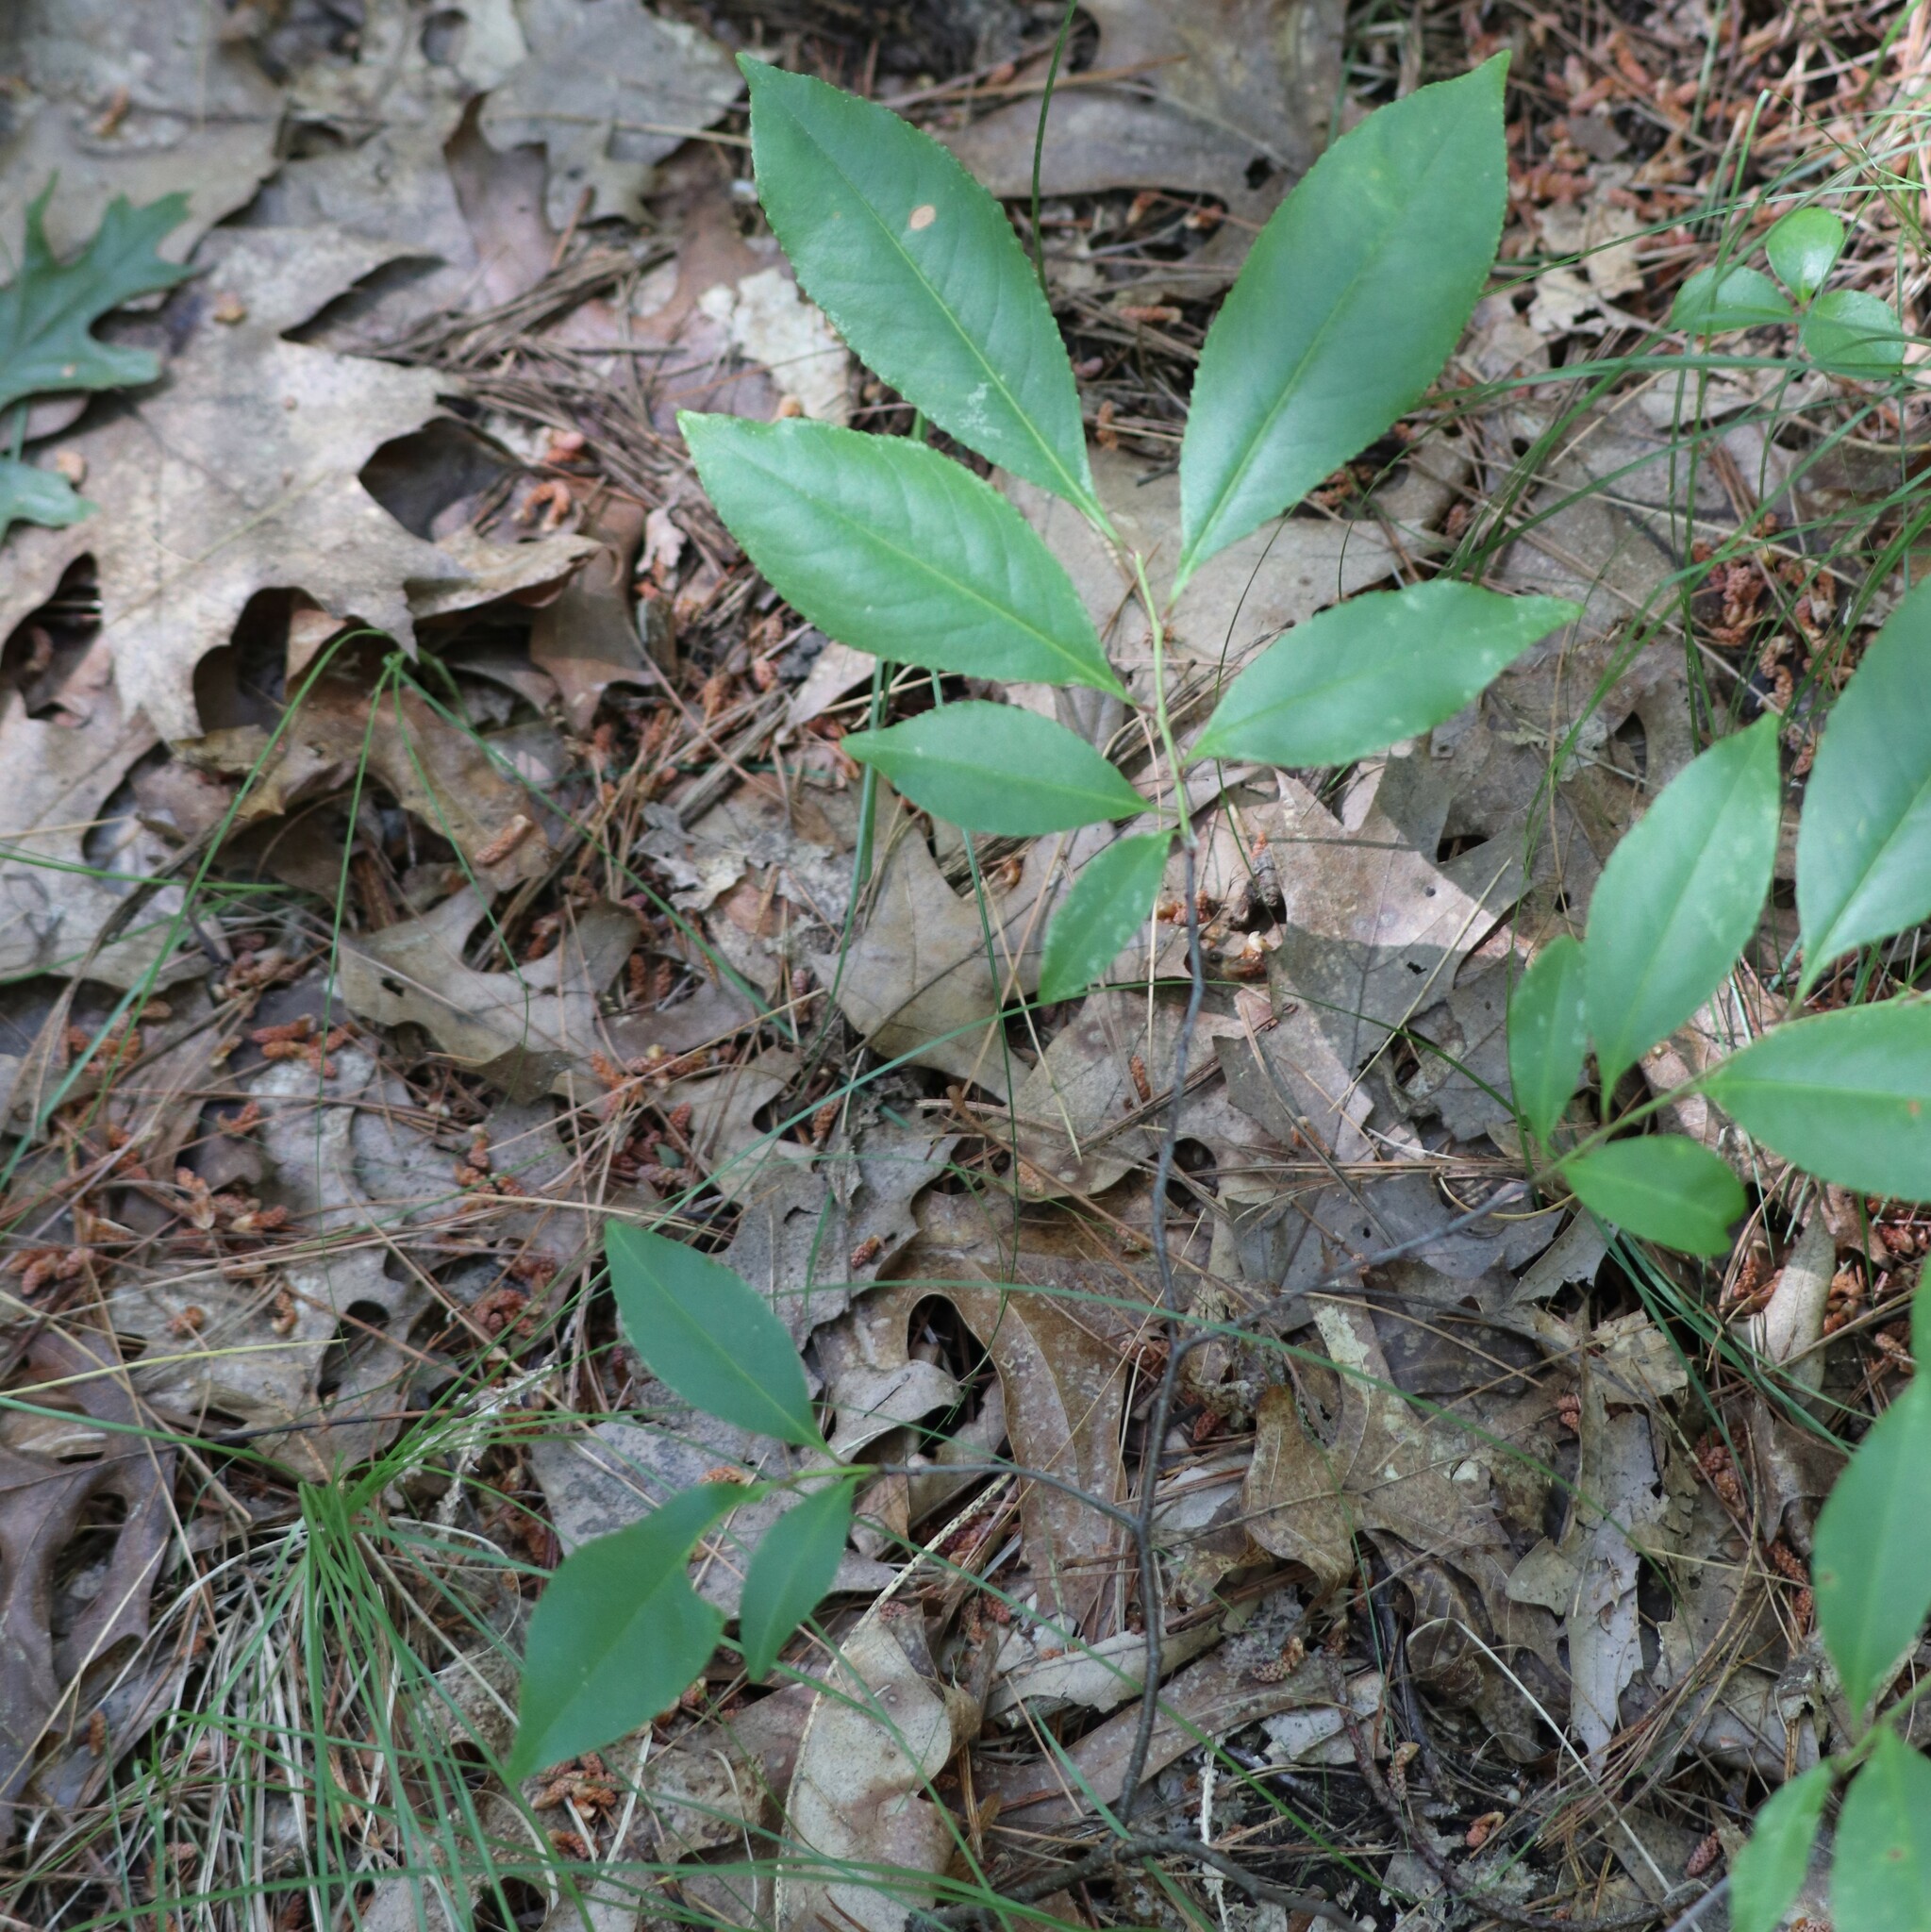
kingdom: Plantae
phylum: Tracheophyta
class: Magnoliopsida
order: Rosales
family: Rosaceae
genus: Prunus
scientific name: Prunus serotina
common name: Black cherry
